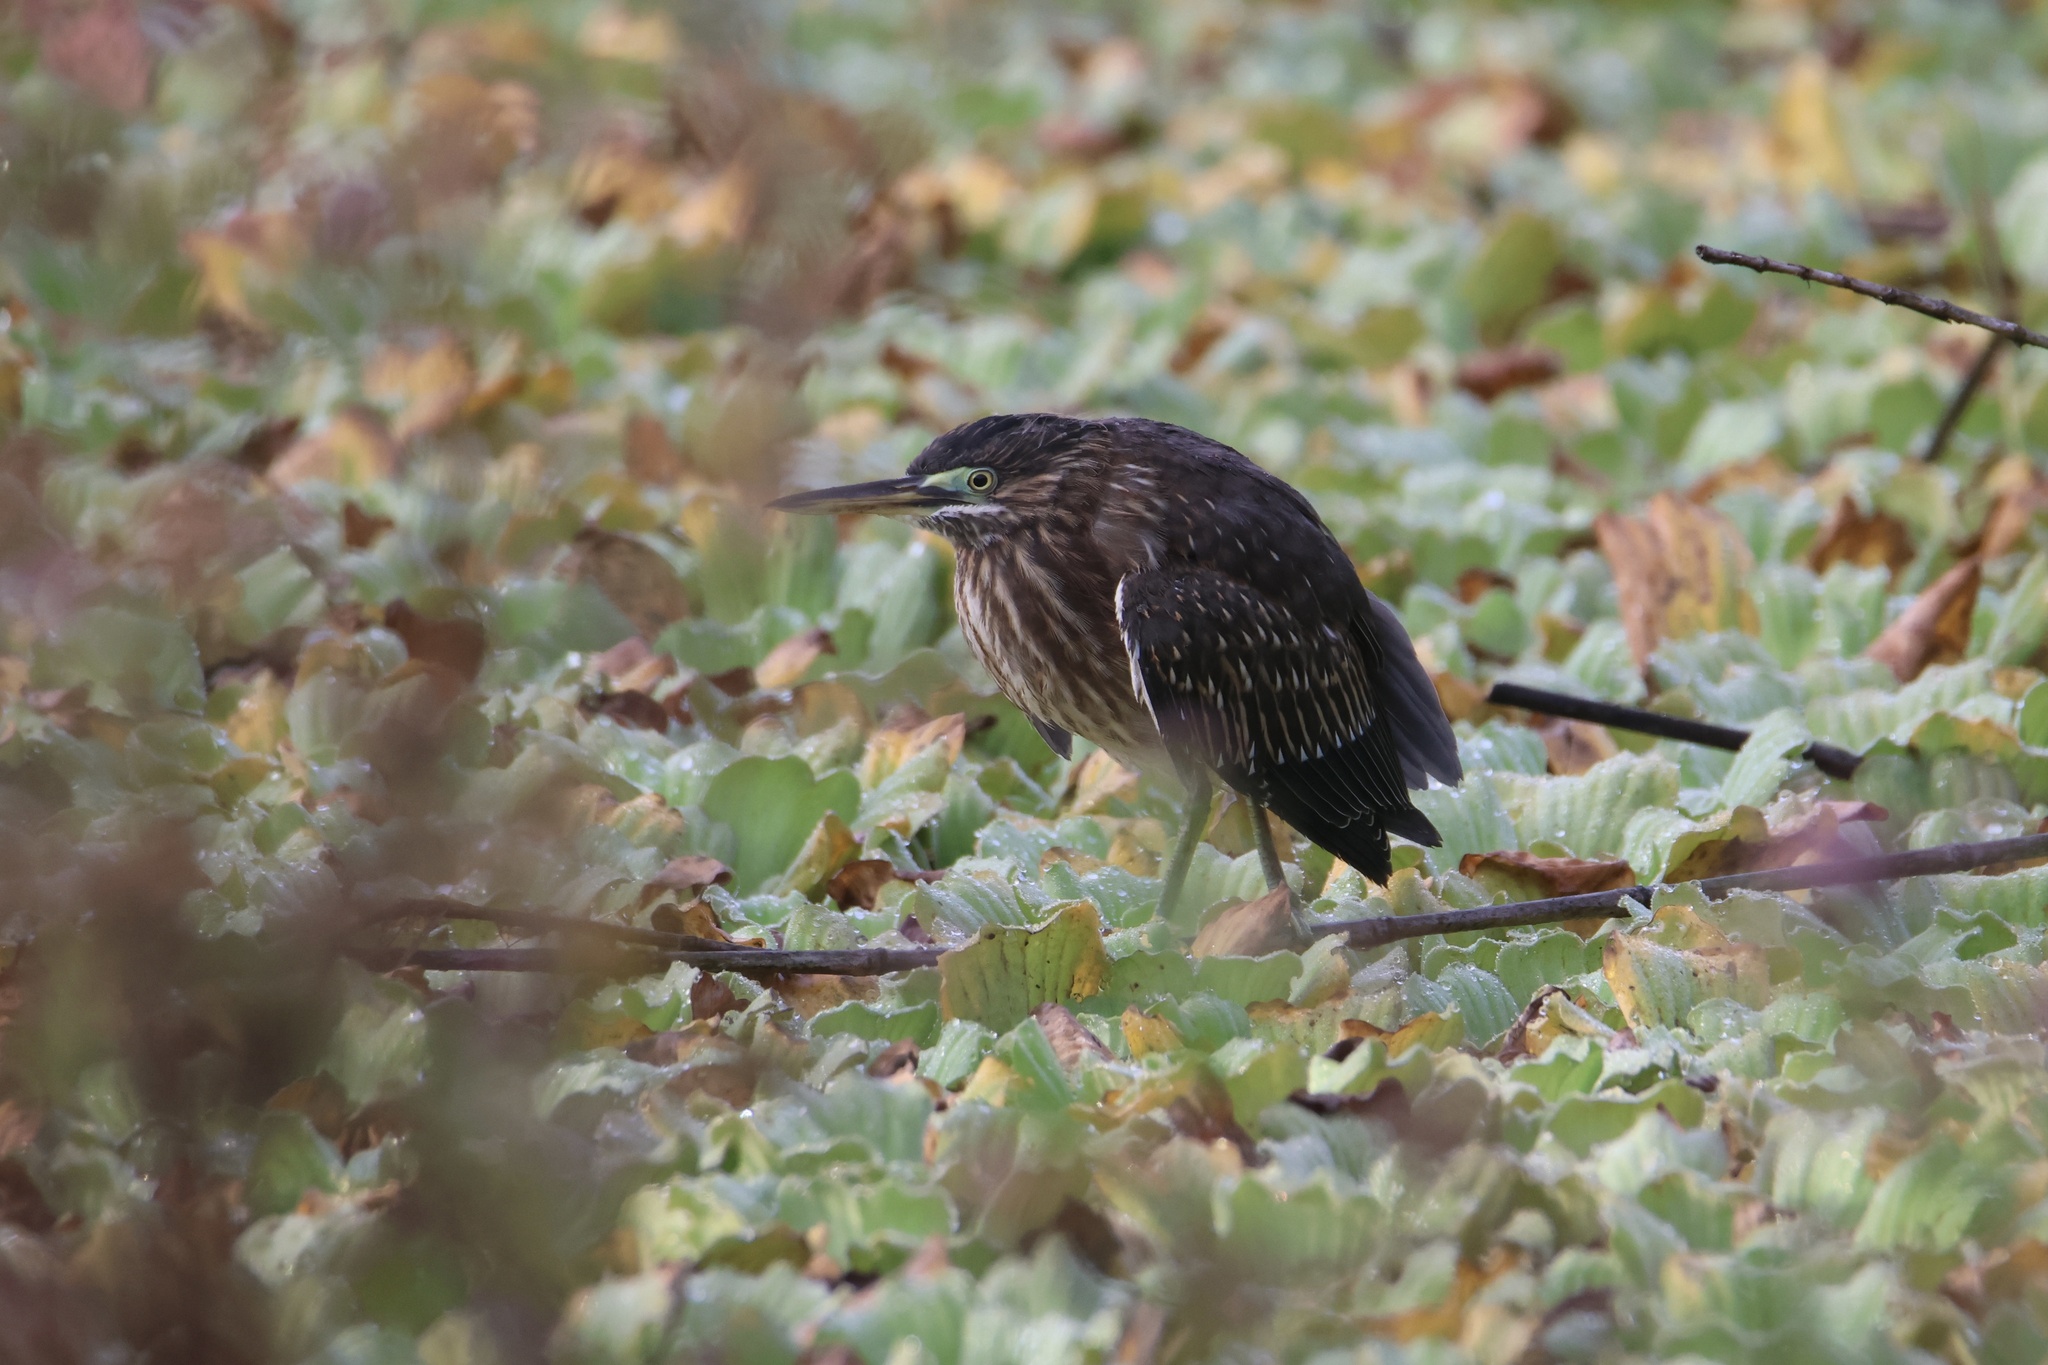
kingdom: Animalia
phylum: Chordata
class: Aves
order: Pelecaniformes
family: Ardeidae
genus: Butorides
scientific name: Butorides striata
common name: Striated heron
